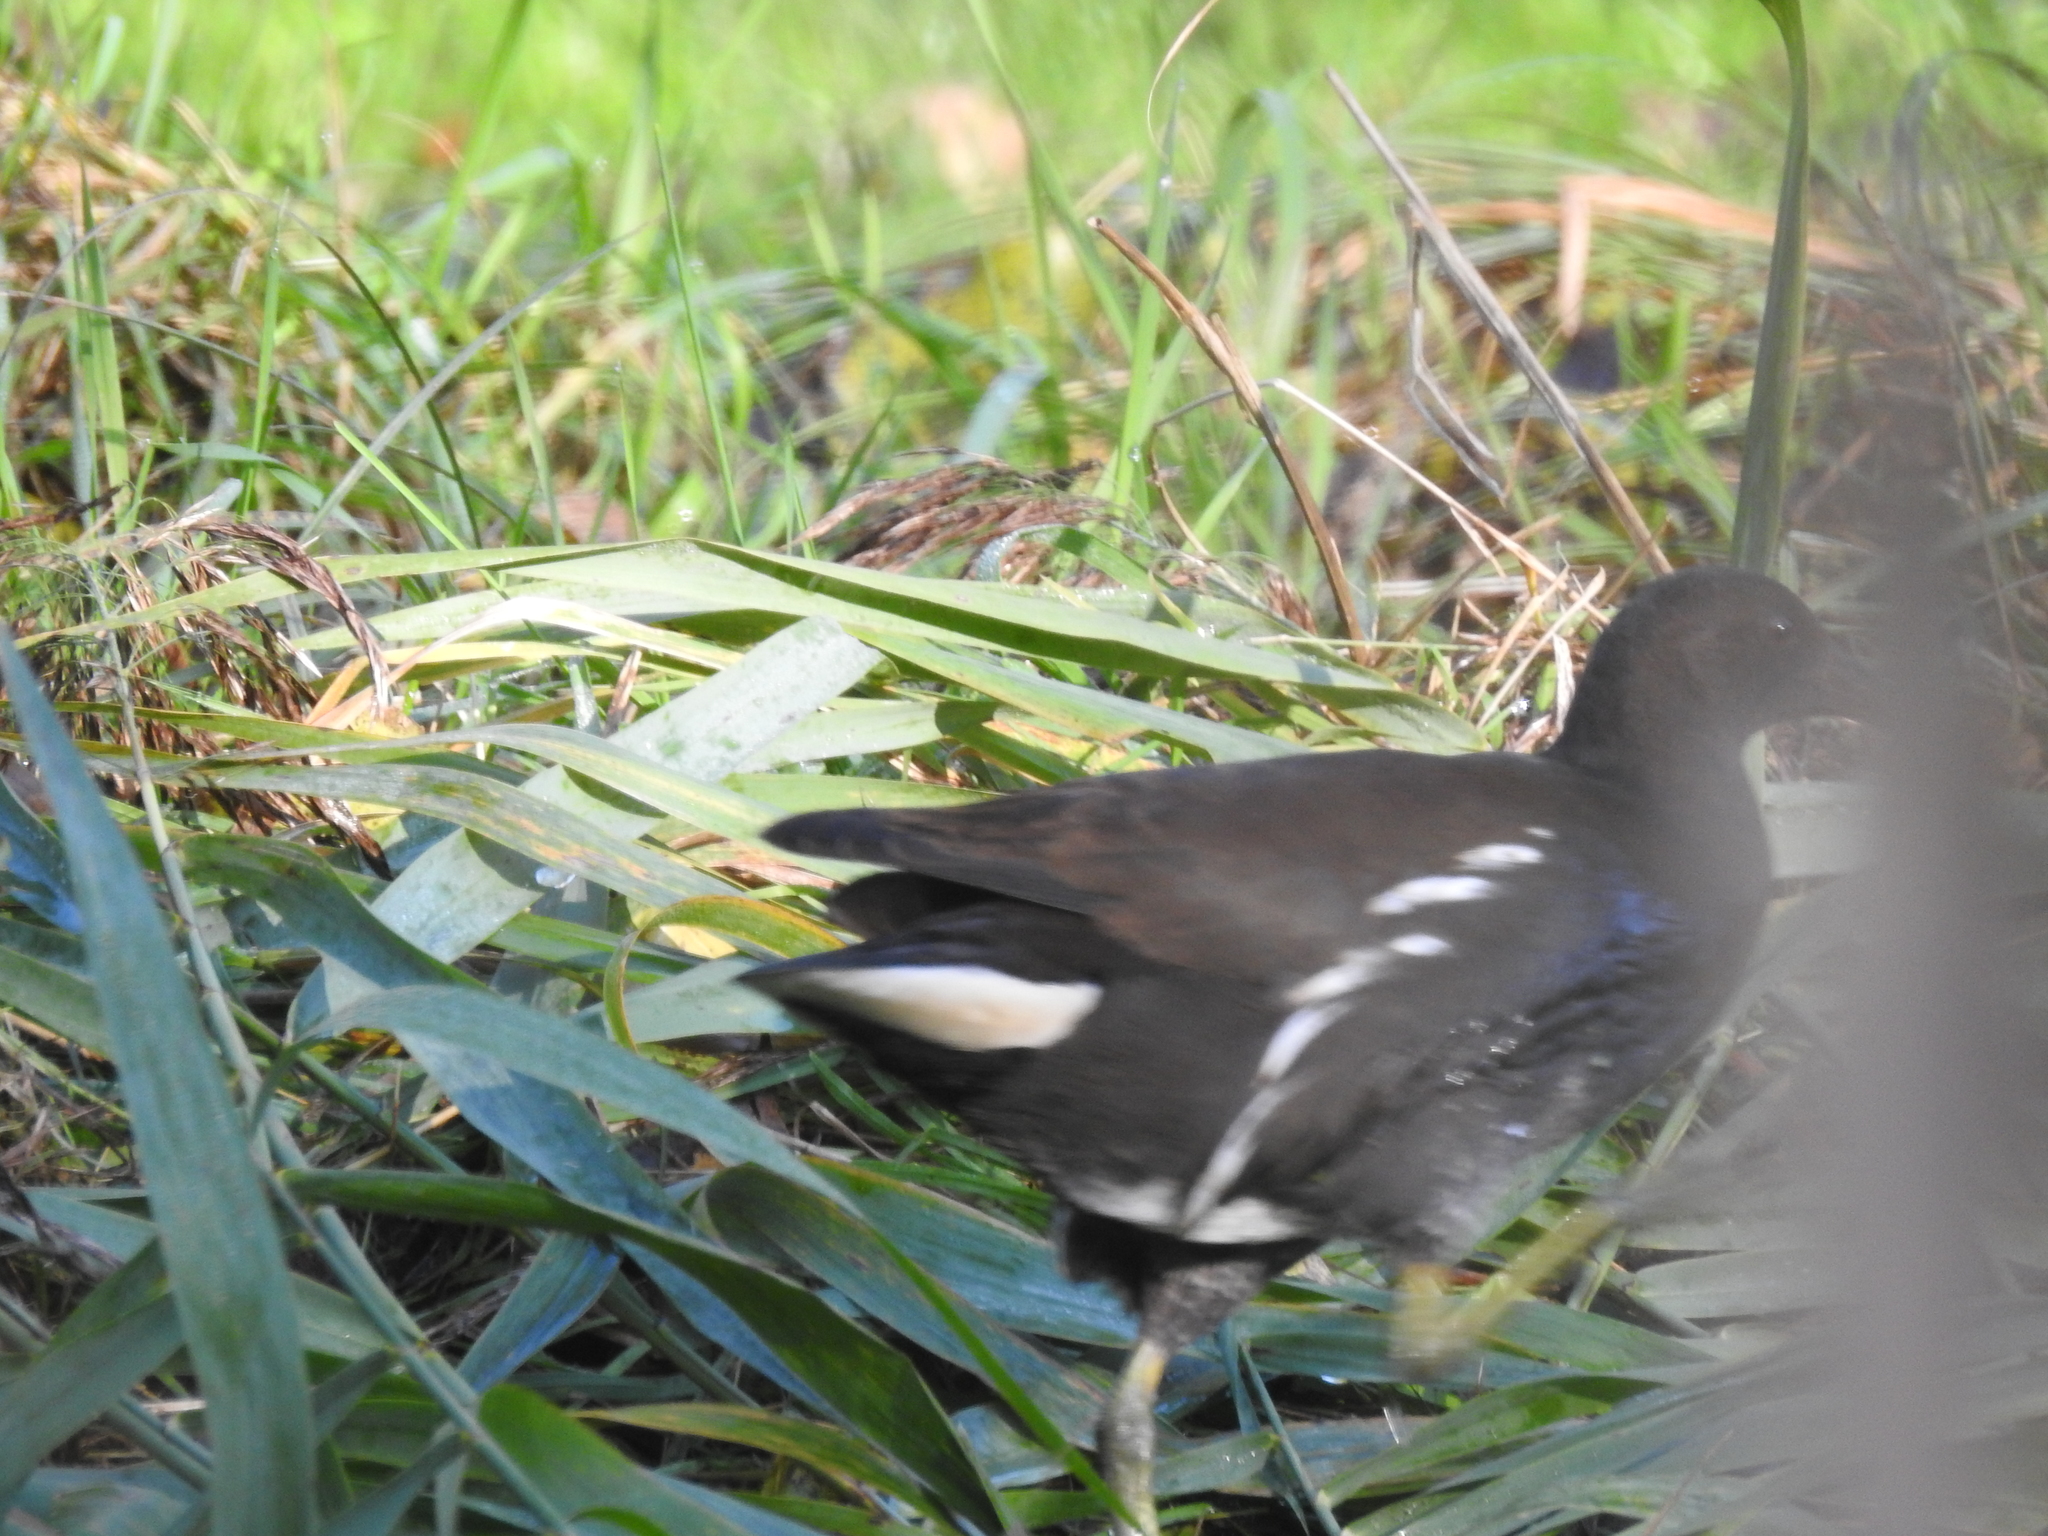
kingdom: Animalia
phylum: Chordata
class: Aves
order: Gruiformes
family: Rallidae
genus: Gallinula
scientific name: Gallinula chloropus
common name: Common moorhen
